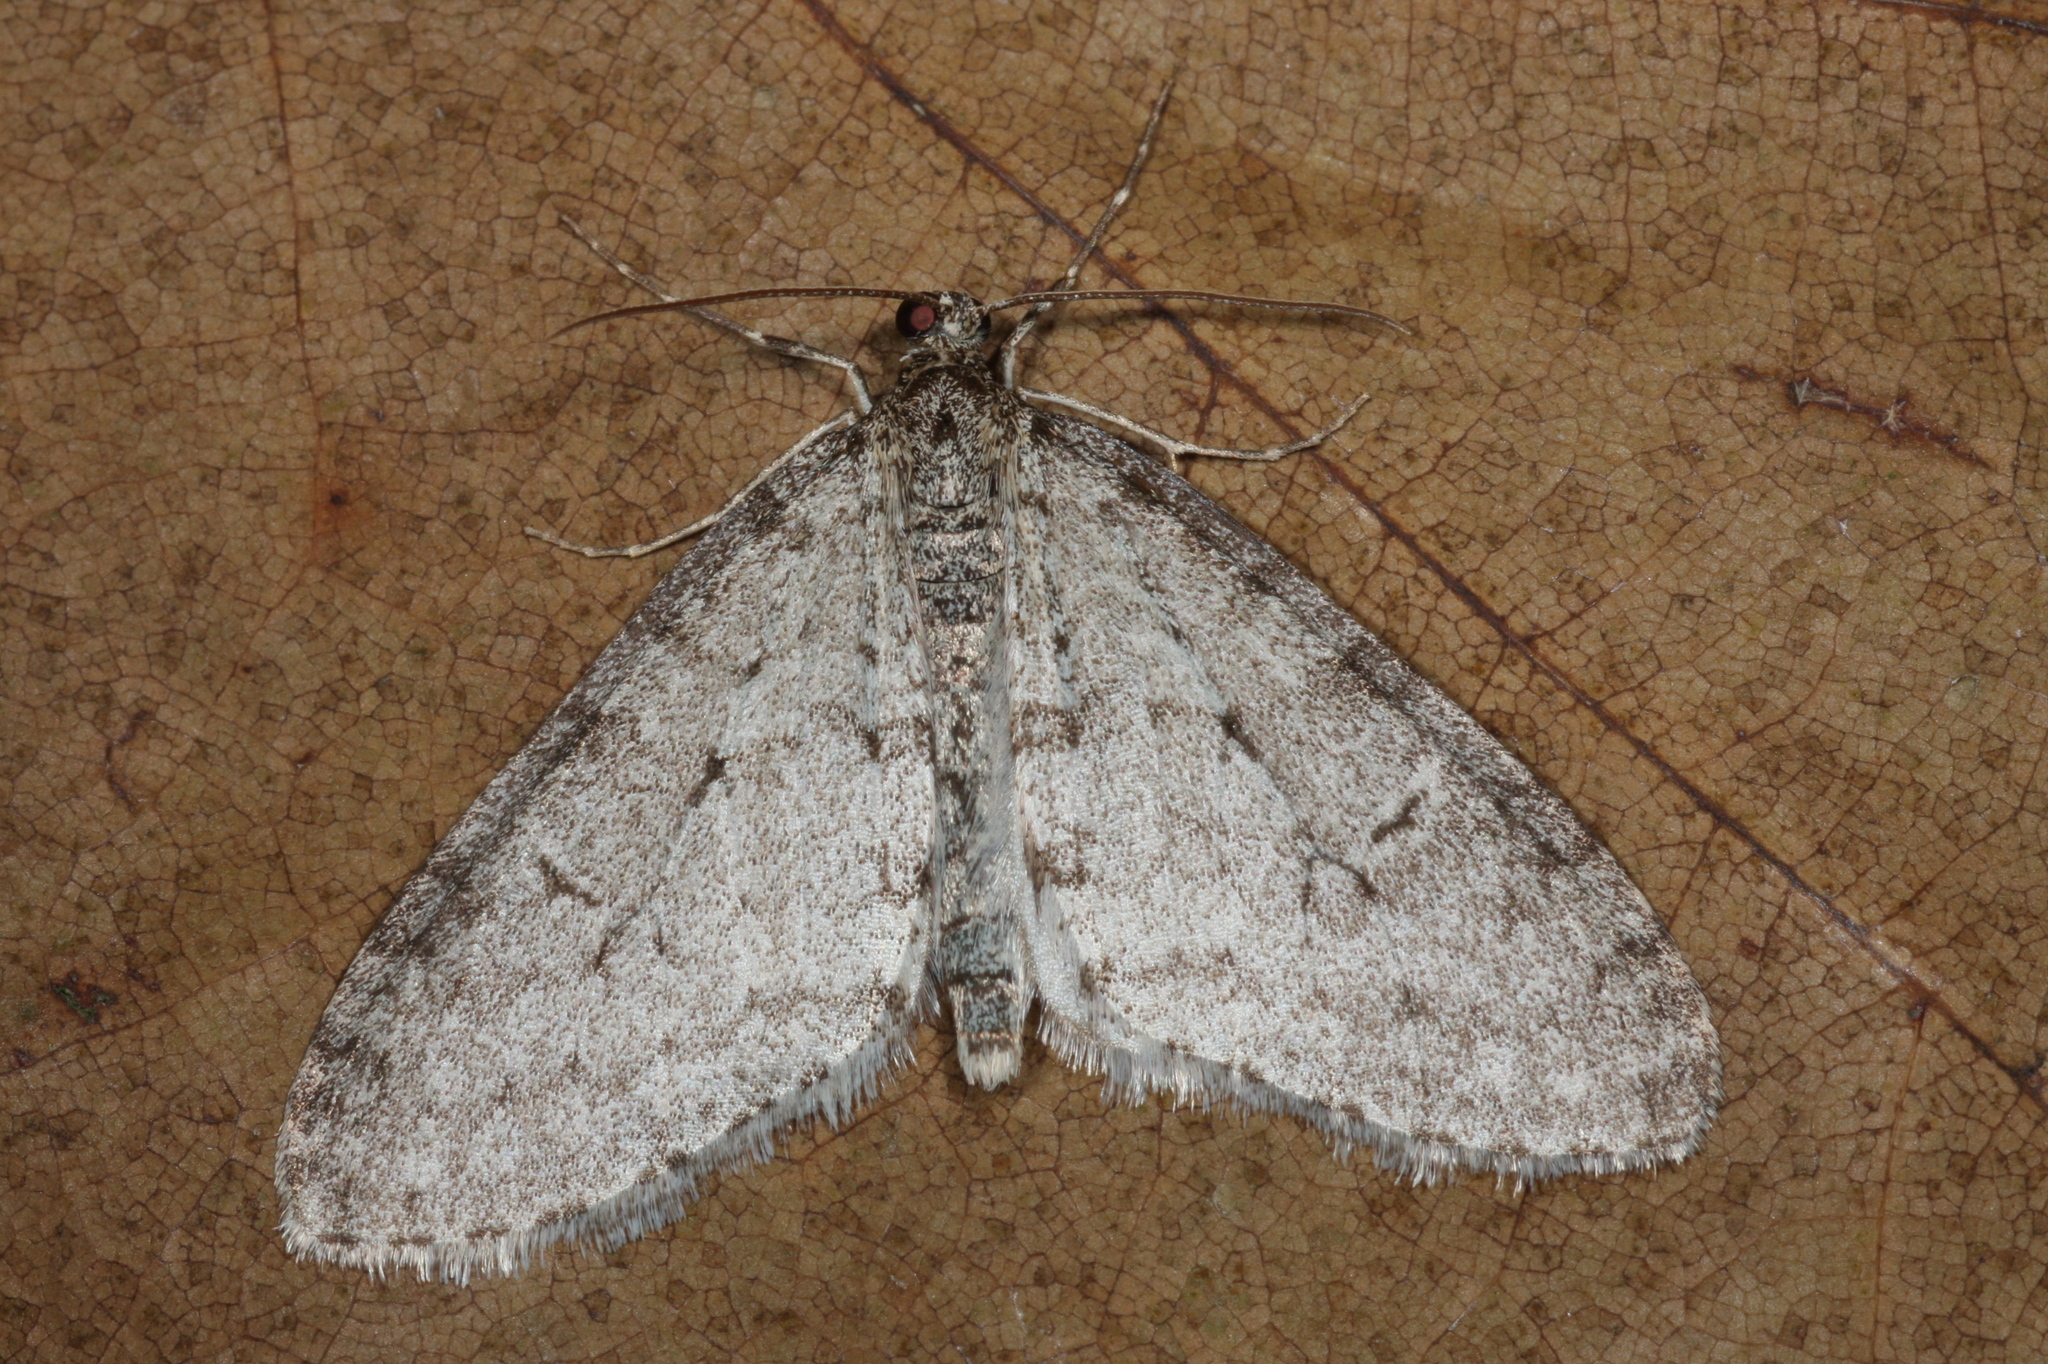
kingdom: Animalia
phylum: Arthropoda
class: Insecta
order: Lepidoptera
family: Geometridae
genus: Trichopteryx
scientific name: Trichopteryx carpinata
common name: Early tooth-striped
